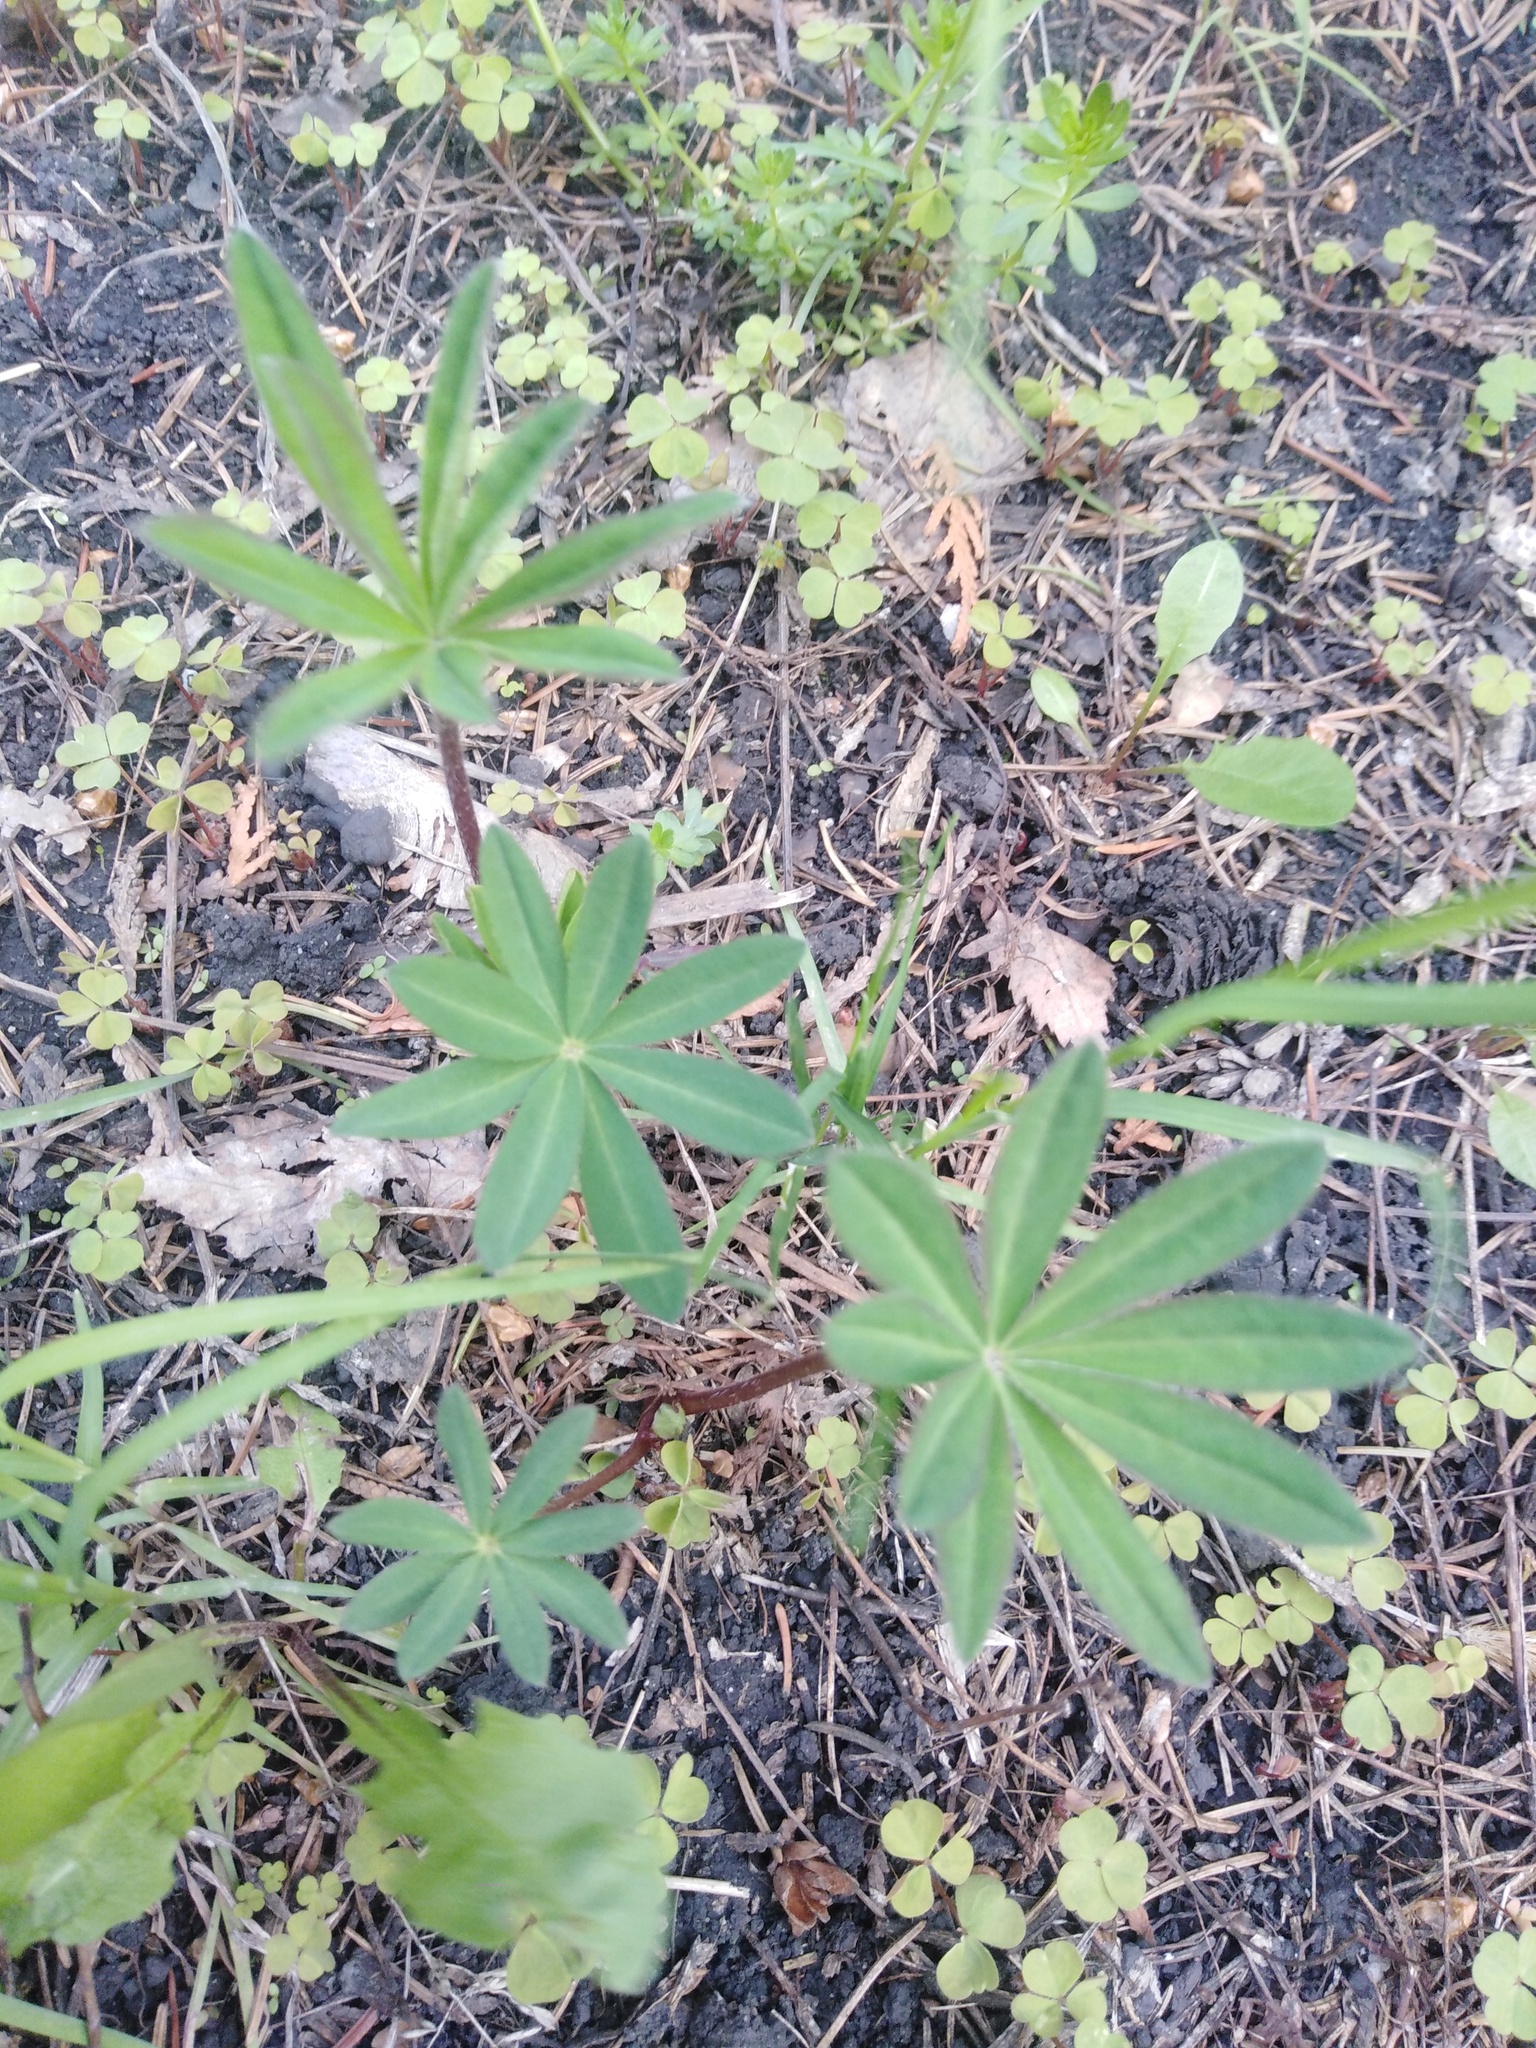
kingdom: Plantae
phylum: Tracheophyta
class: Magnoliopsida
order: Fabales
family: Fabaceae
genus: Lupinus
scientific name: Lupinus polyphyllus
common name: Garden lupin
